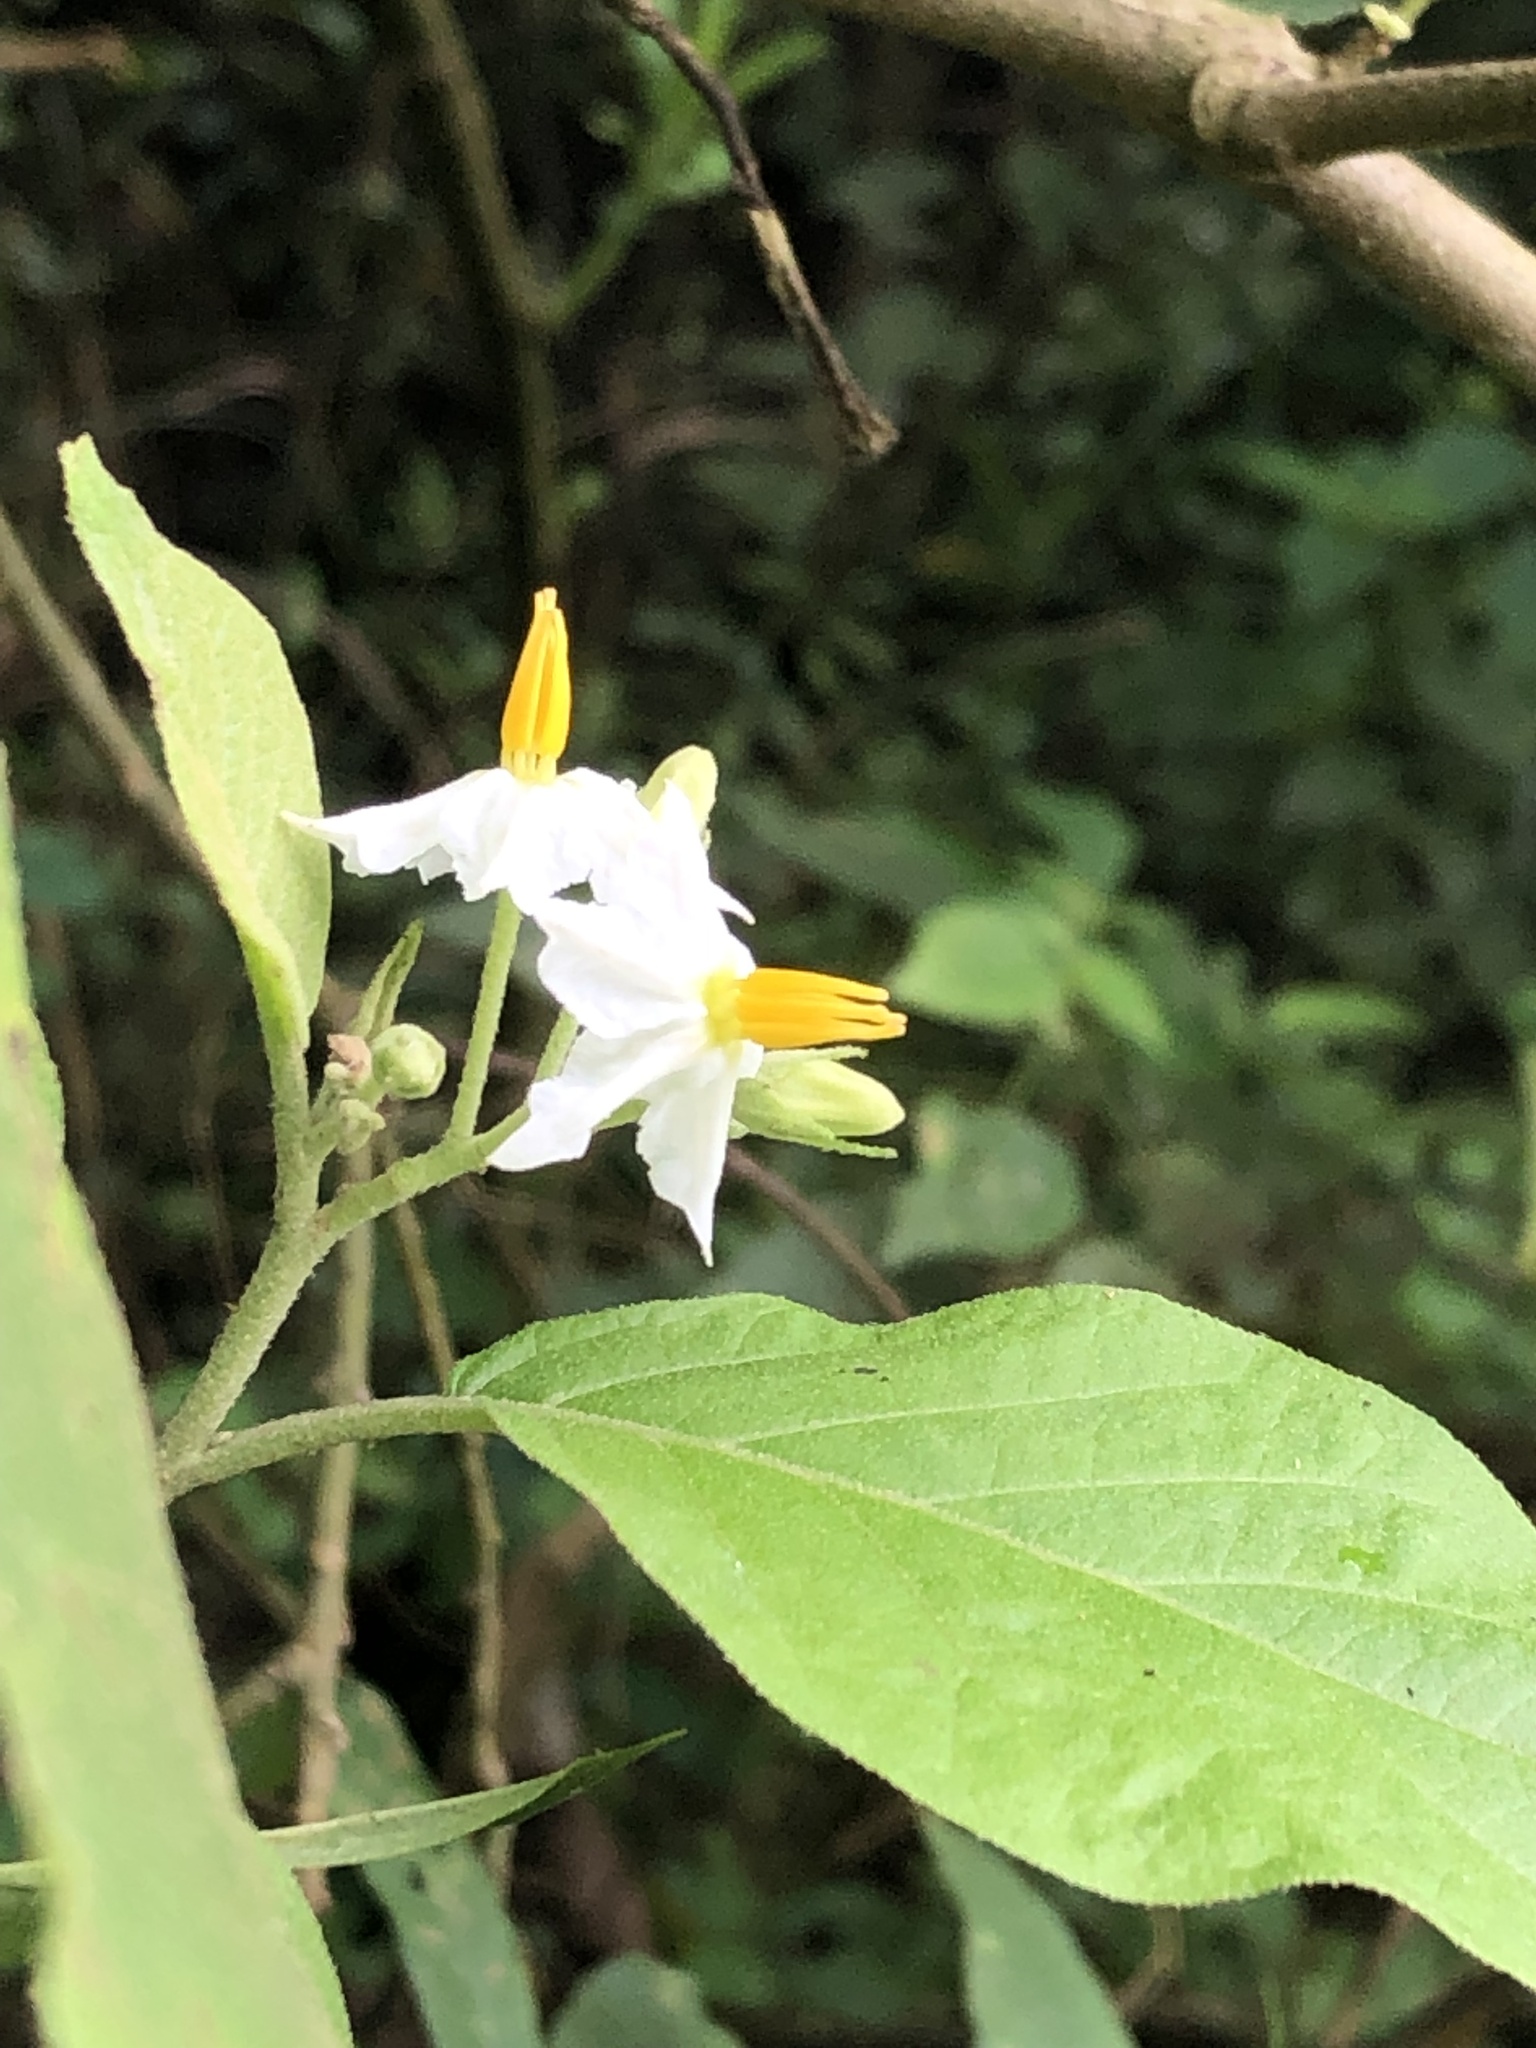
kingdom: Plantae
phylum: Tracheophyta
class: Magnoliopsida
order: Solanales
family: Solanaceae
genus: Solanum
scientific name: Solanum torvum
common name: Turkey berry
